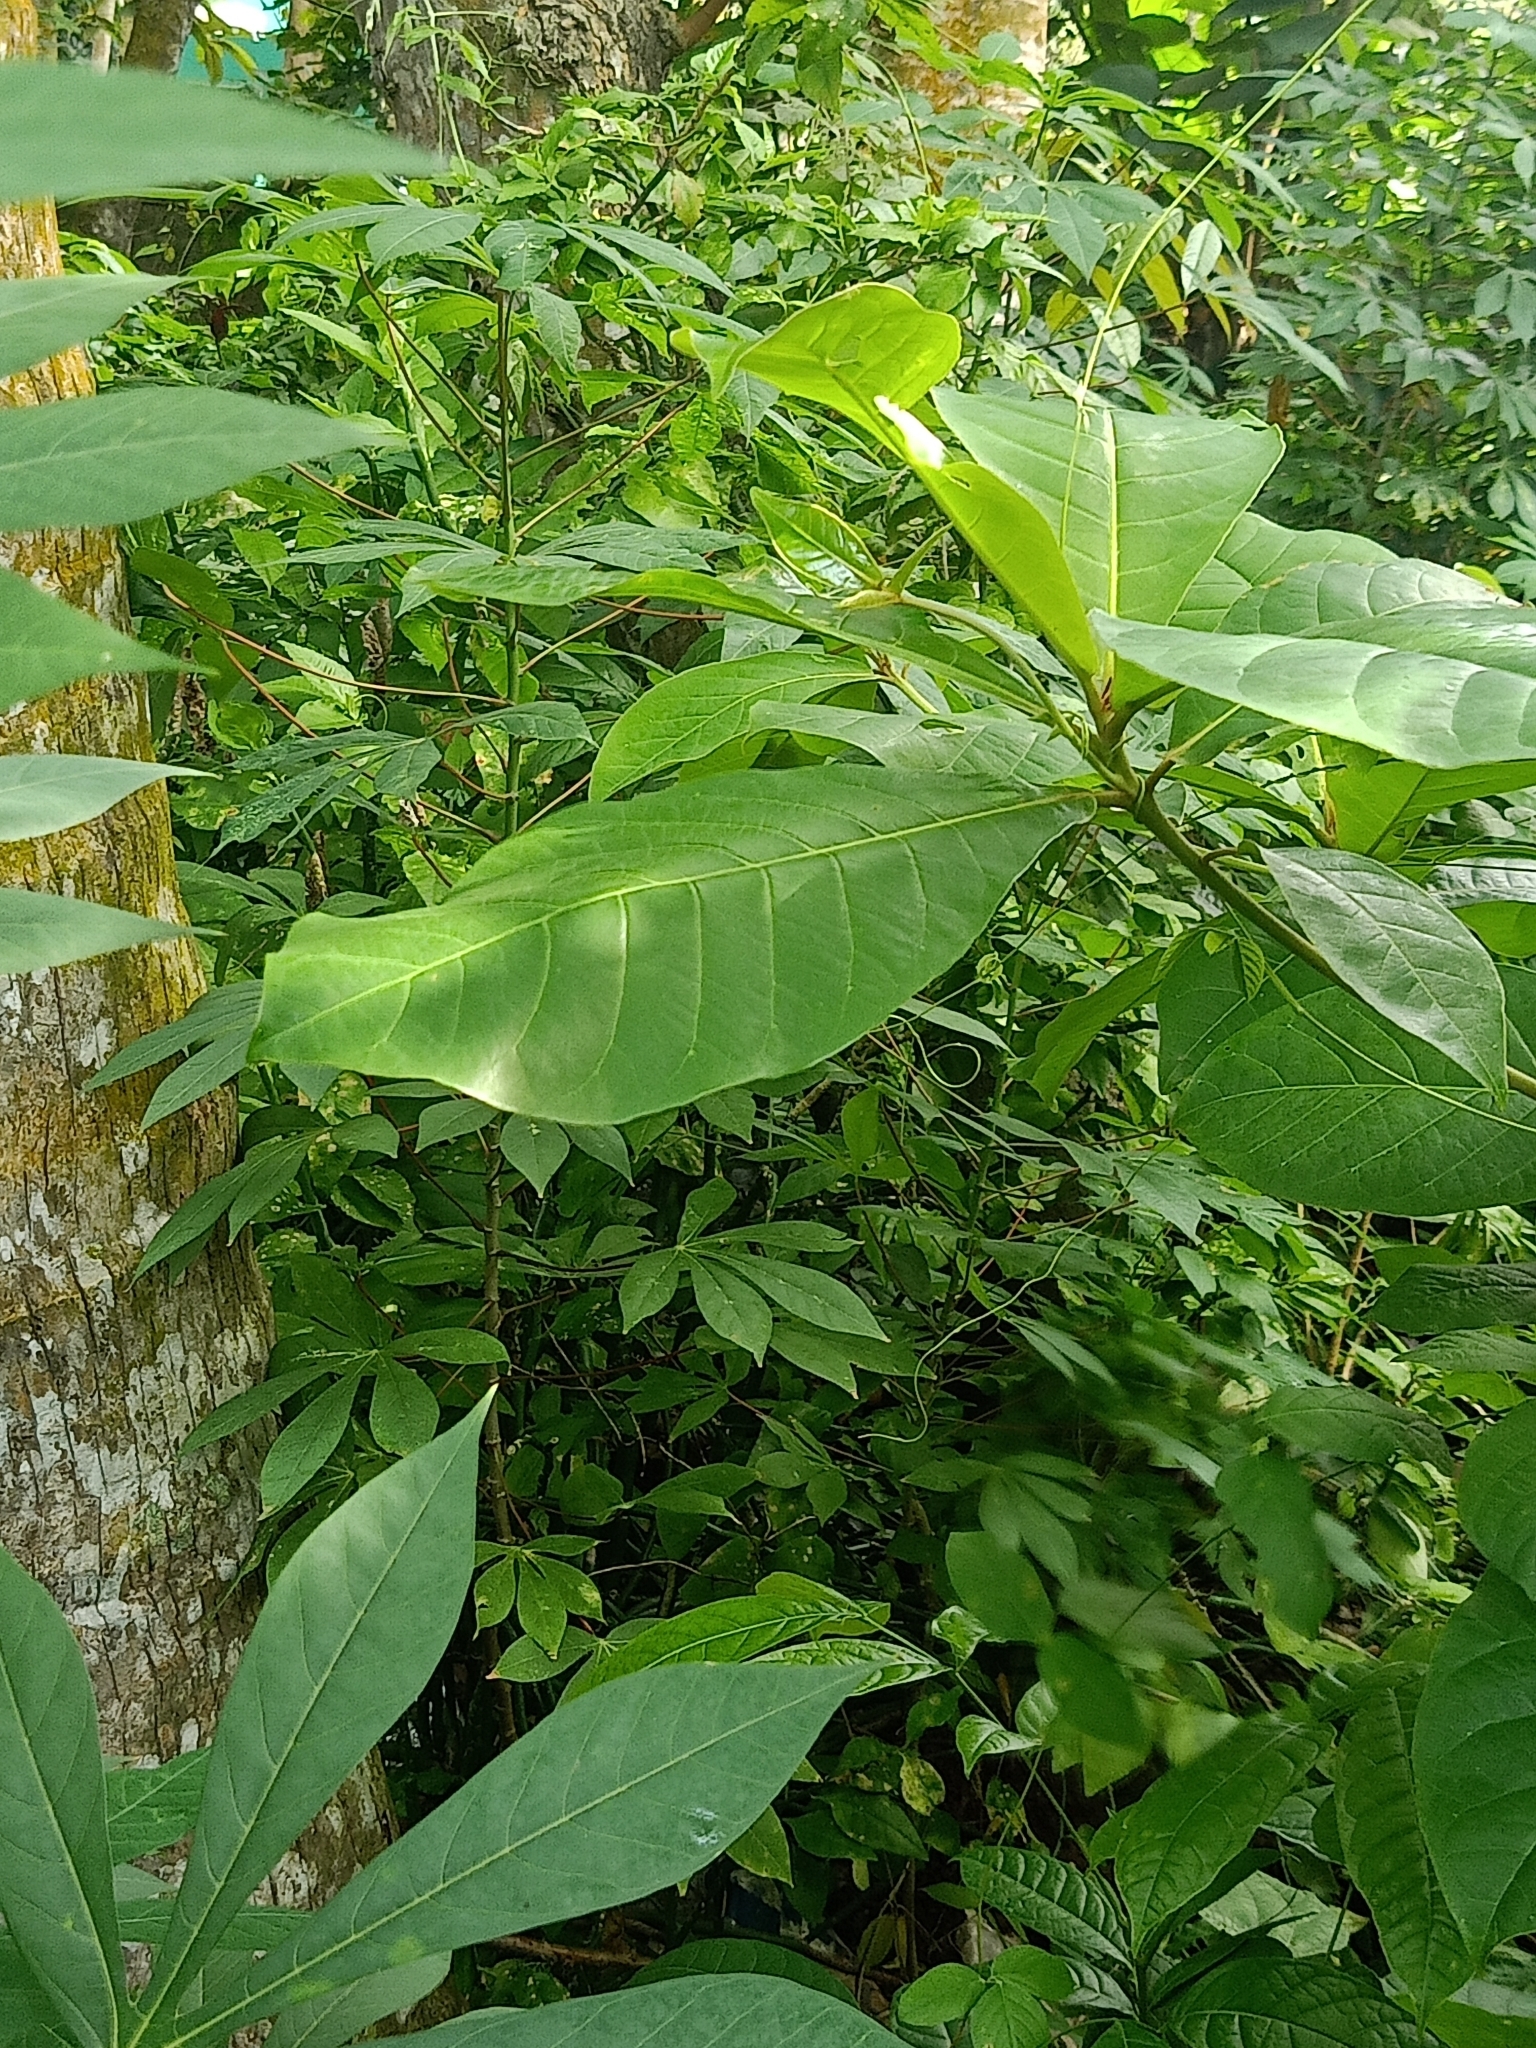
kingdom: Plantae
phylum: Tracheophyta
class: Magnoliopsida
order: Myrtales
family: Combretaceae
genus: Terminalia
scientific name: Terminalia catappa
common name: Tropical almond
